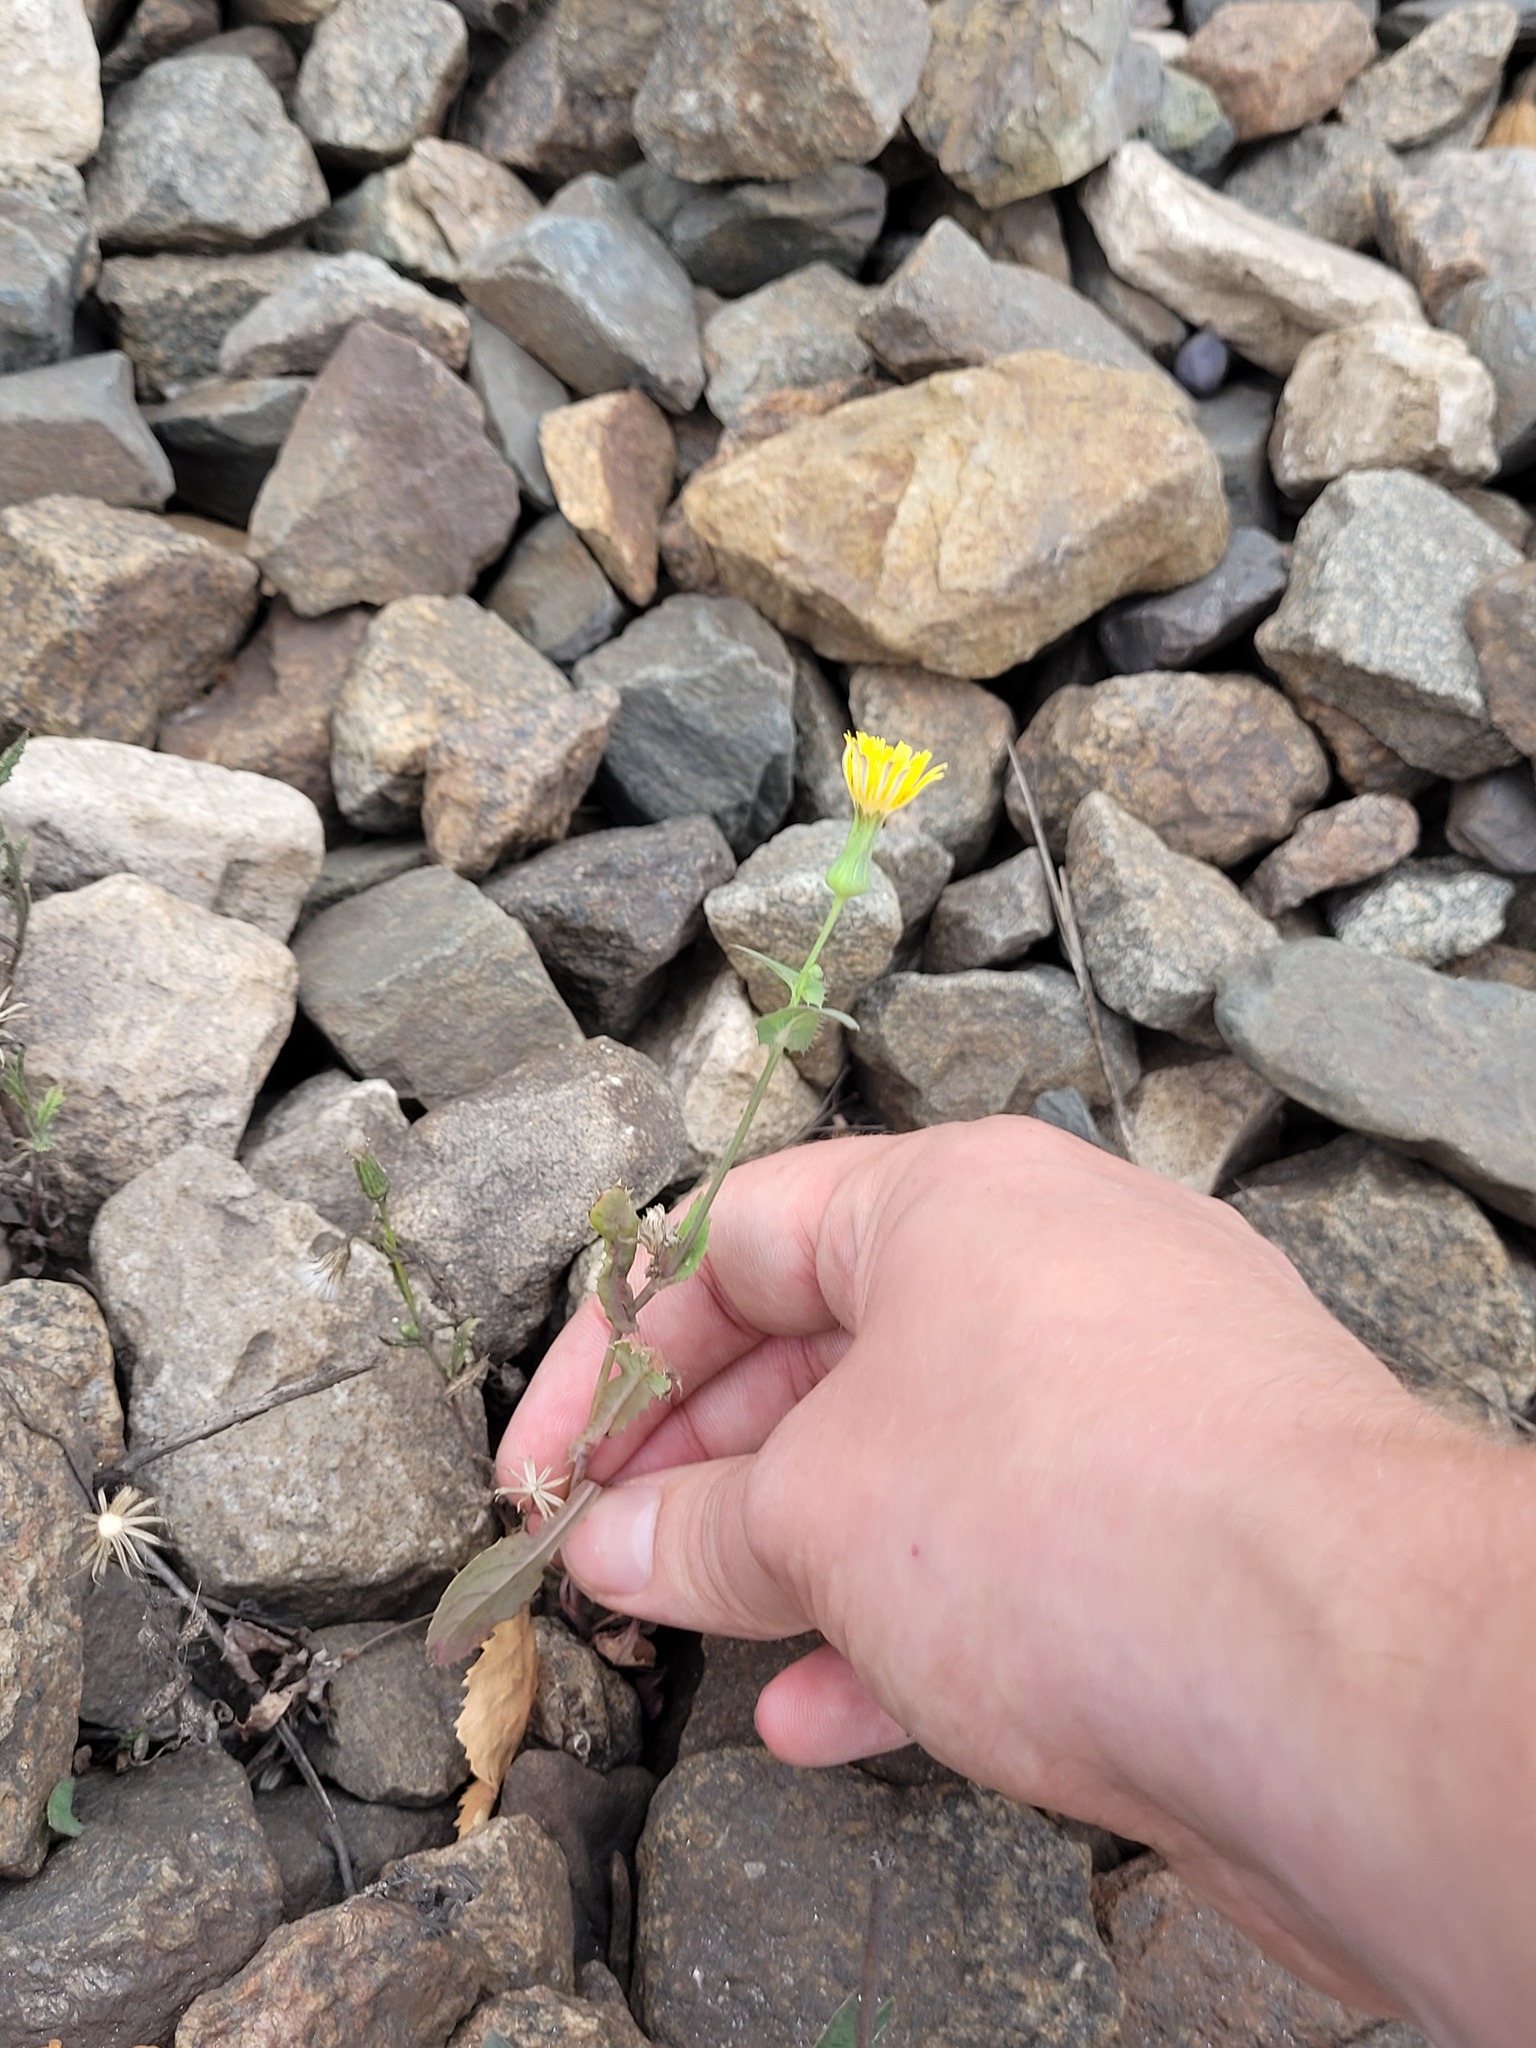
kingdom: Plantae
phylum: Tracheophyta
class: Magnoliopsida
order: Asterales
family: Asteraceae
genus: Sonchus
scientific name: Sonchus oleraceus
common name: Common sowthistle
